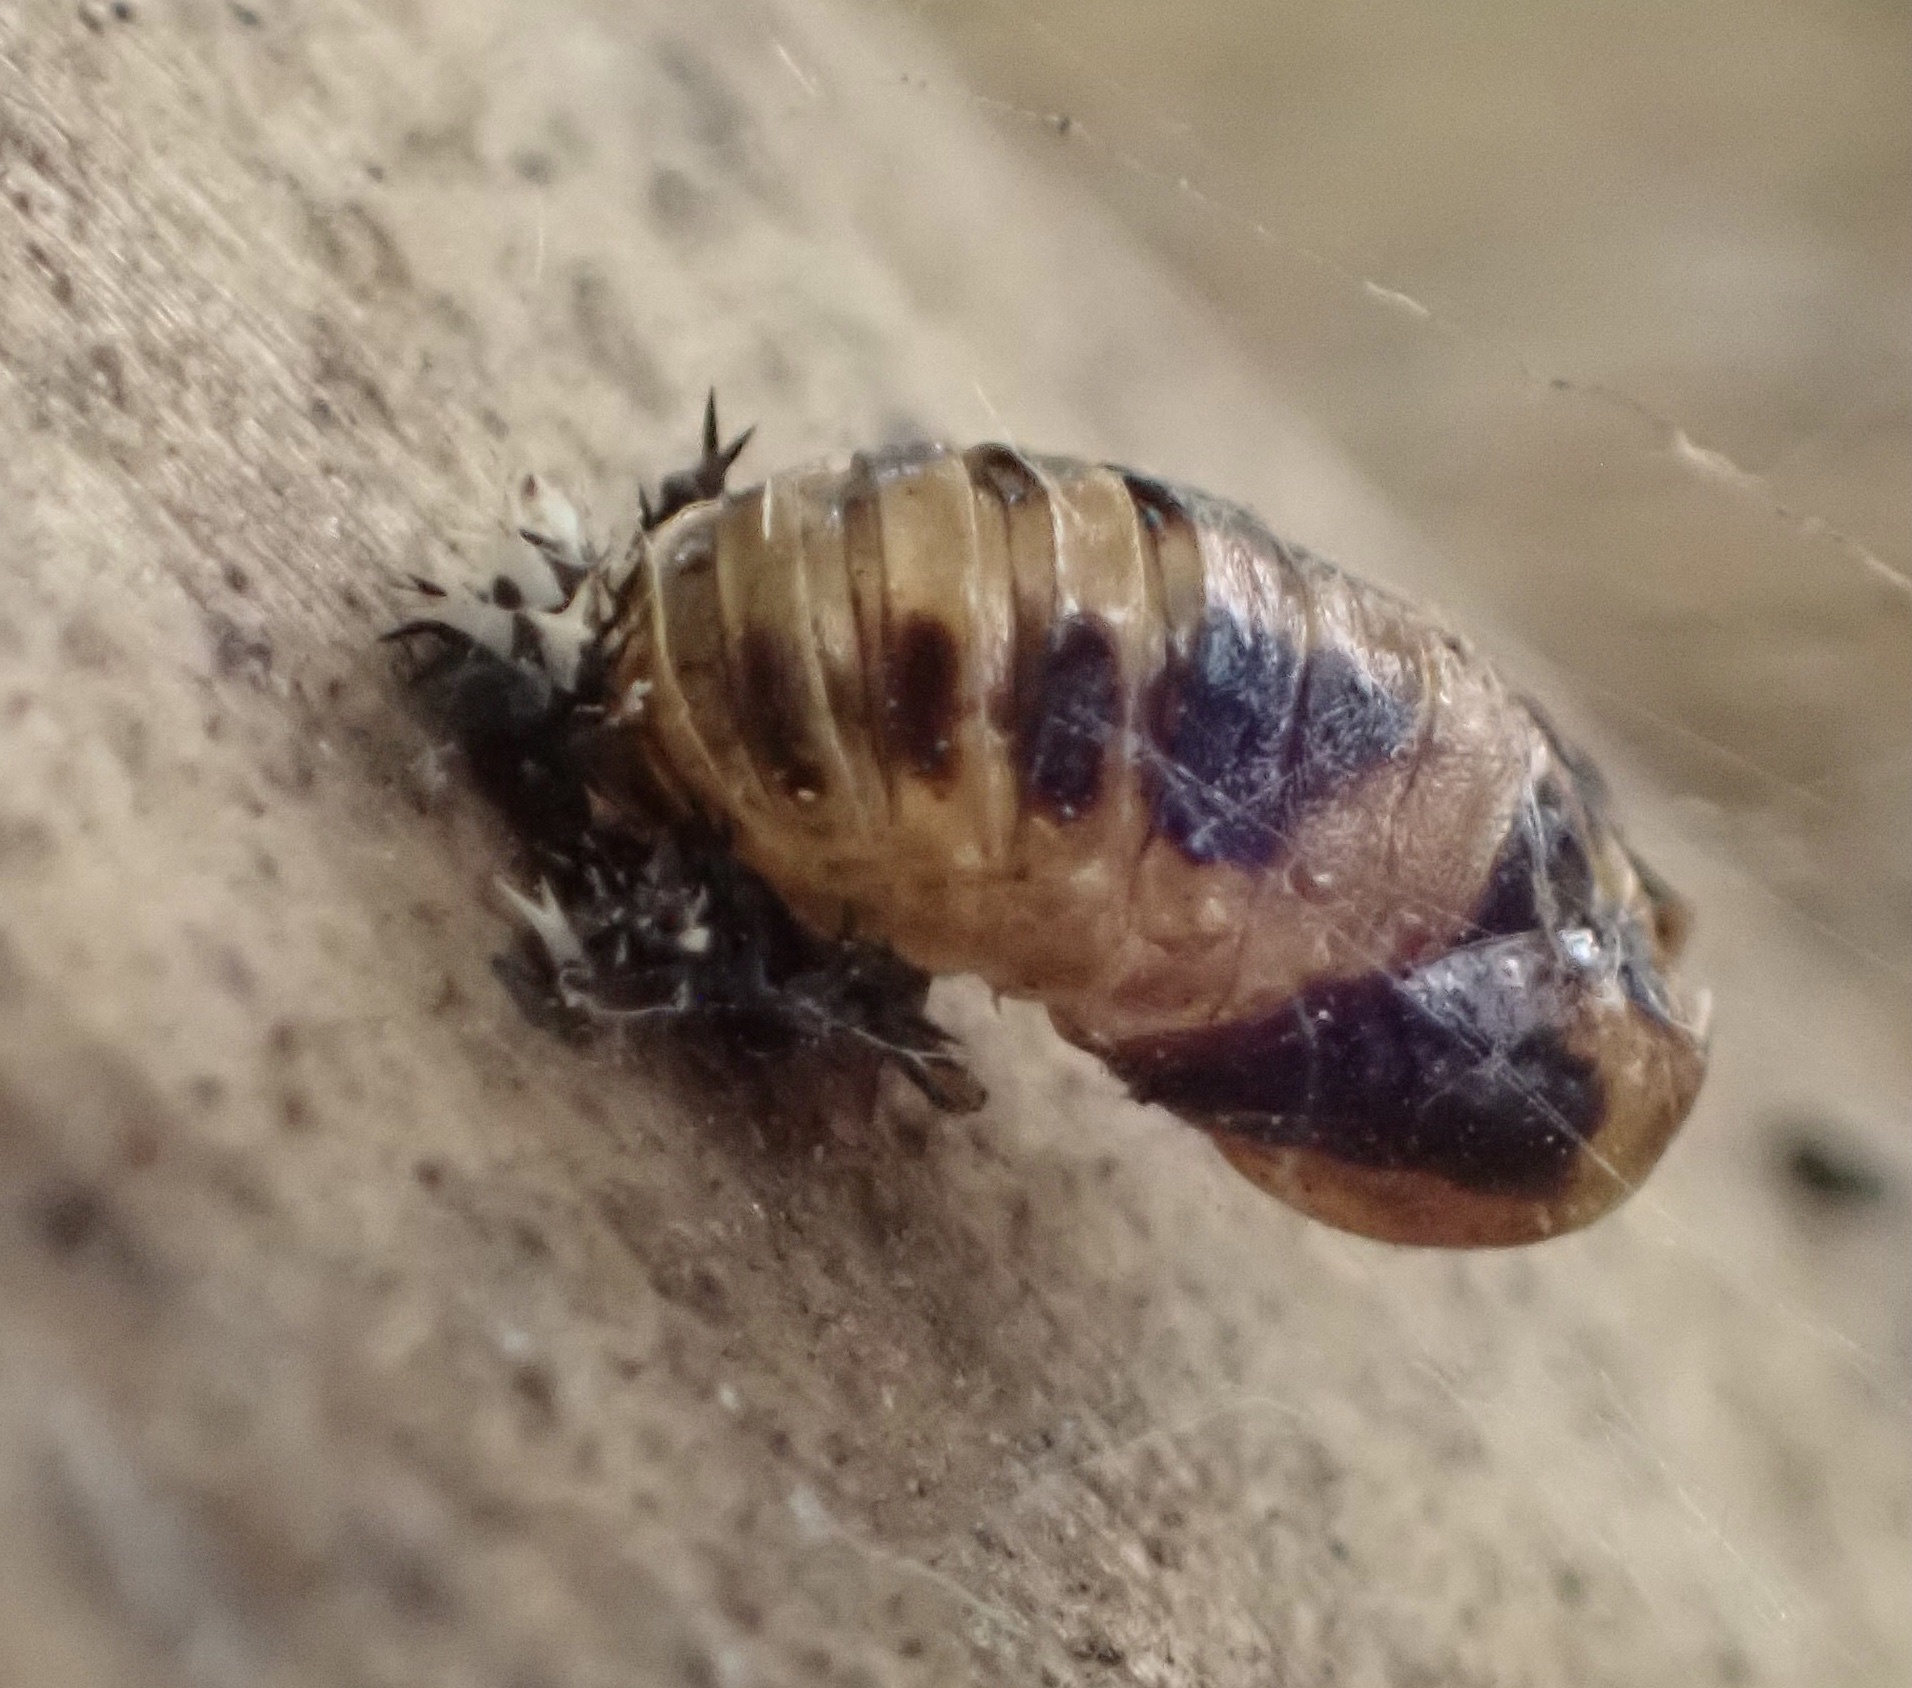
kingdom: Animalia
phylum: Arthropoda
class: Insecta
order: Coleoptera
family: Coccinellidae
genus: Harmonia
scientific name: Harmonia axyridis
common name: Harlequin ladybird
